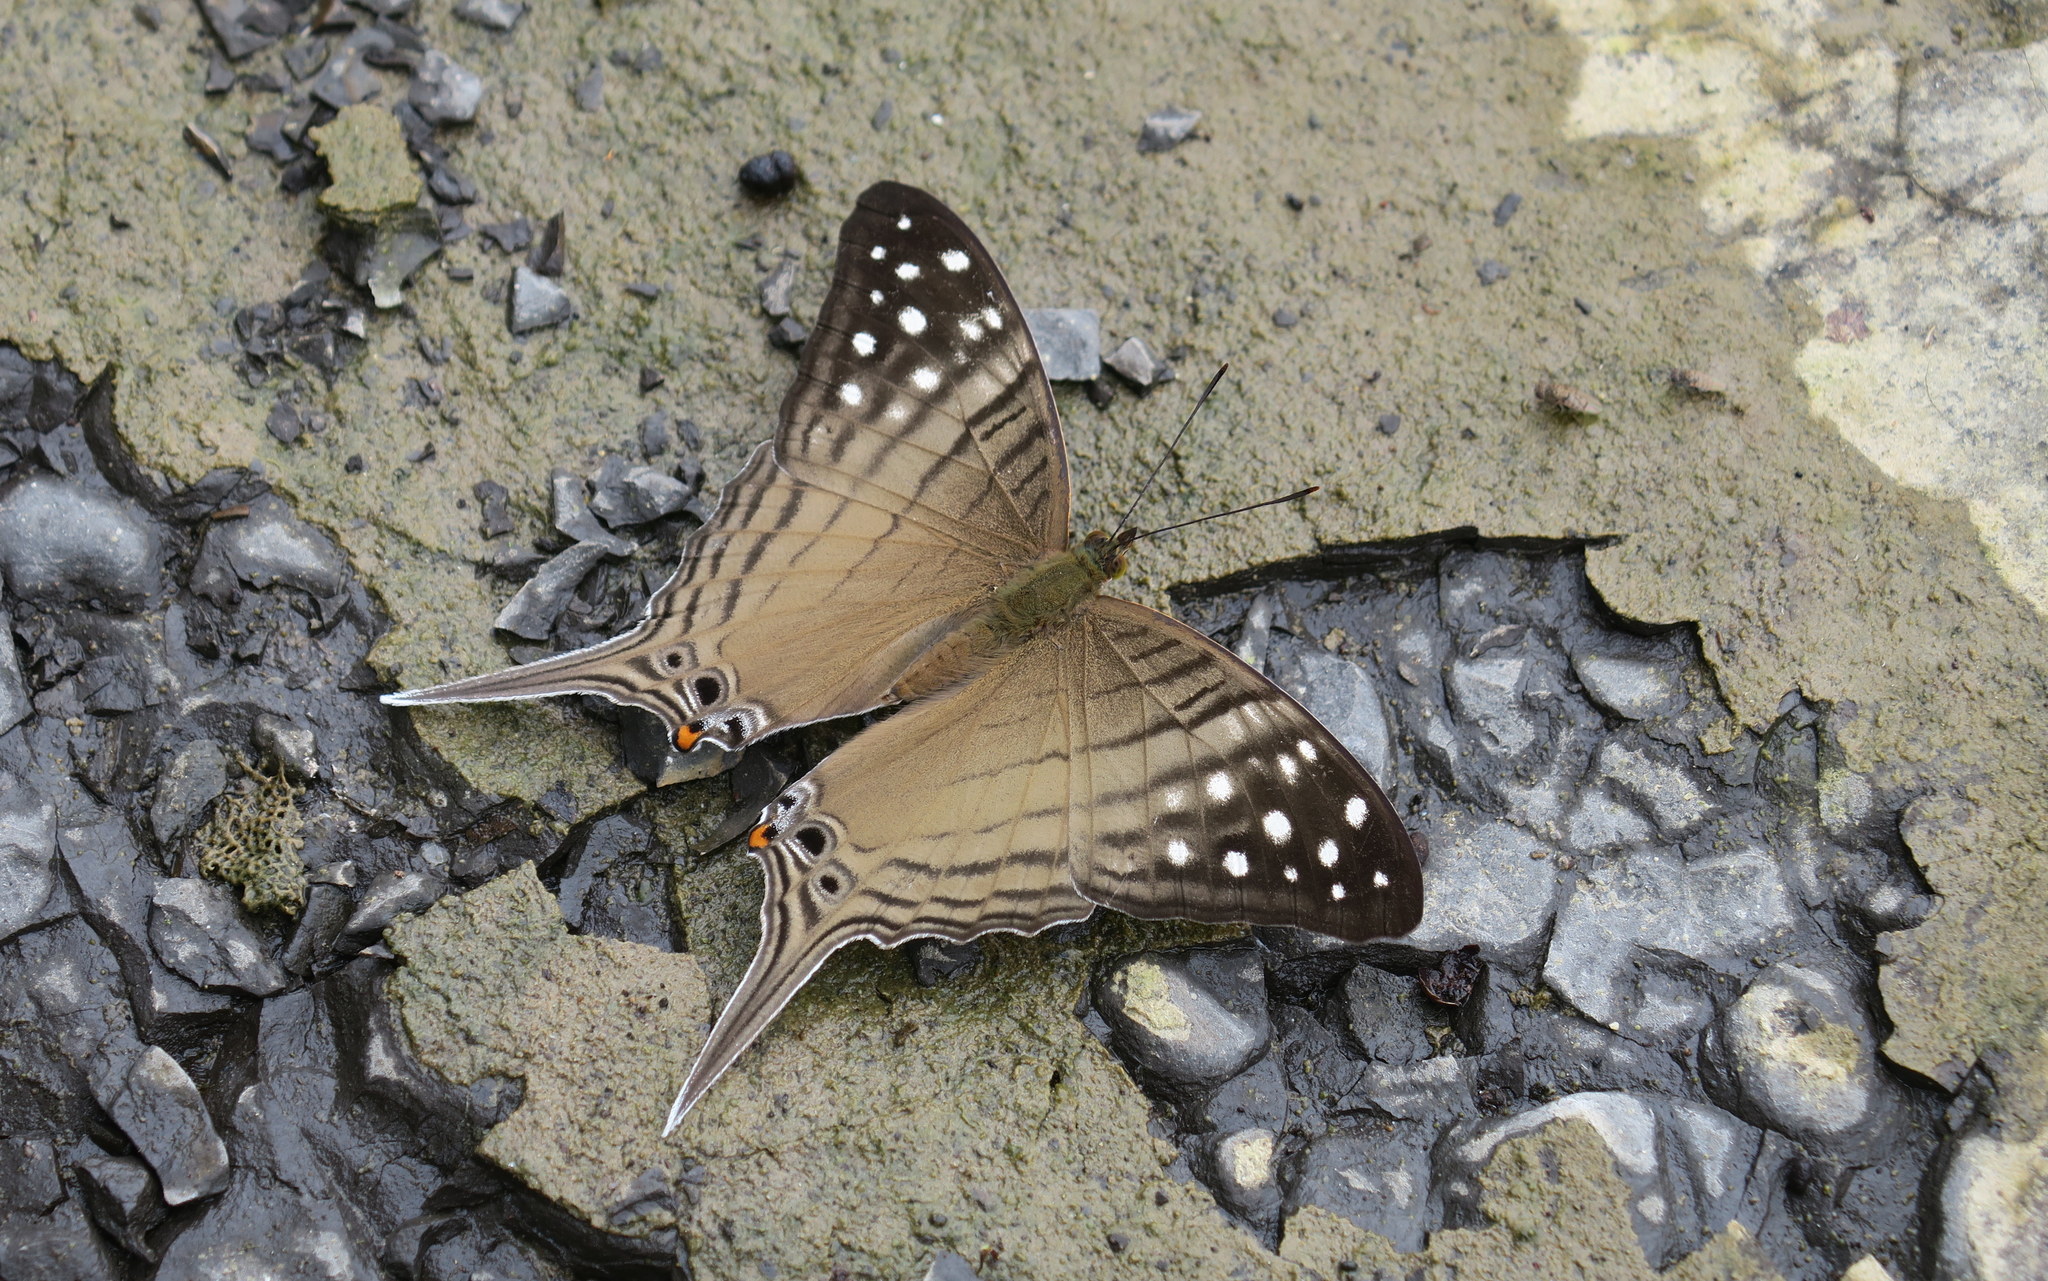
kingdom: Animalia
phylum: Arthropoda
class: Insecta
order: Lepidoptera
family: Nymphalidae
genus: Marpesia
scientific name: Marpesia merops
